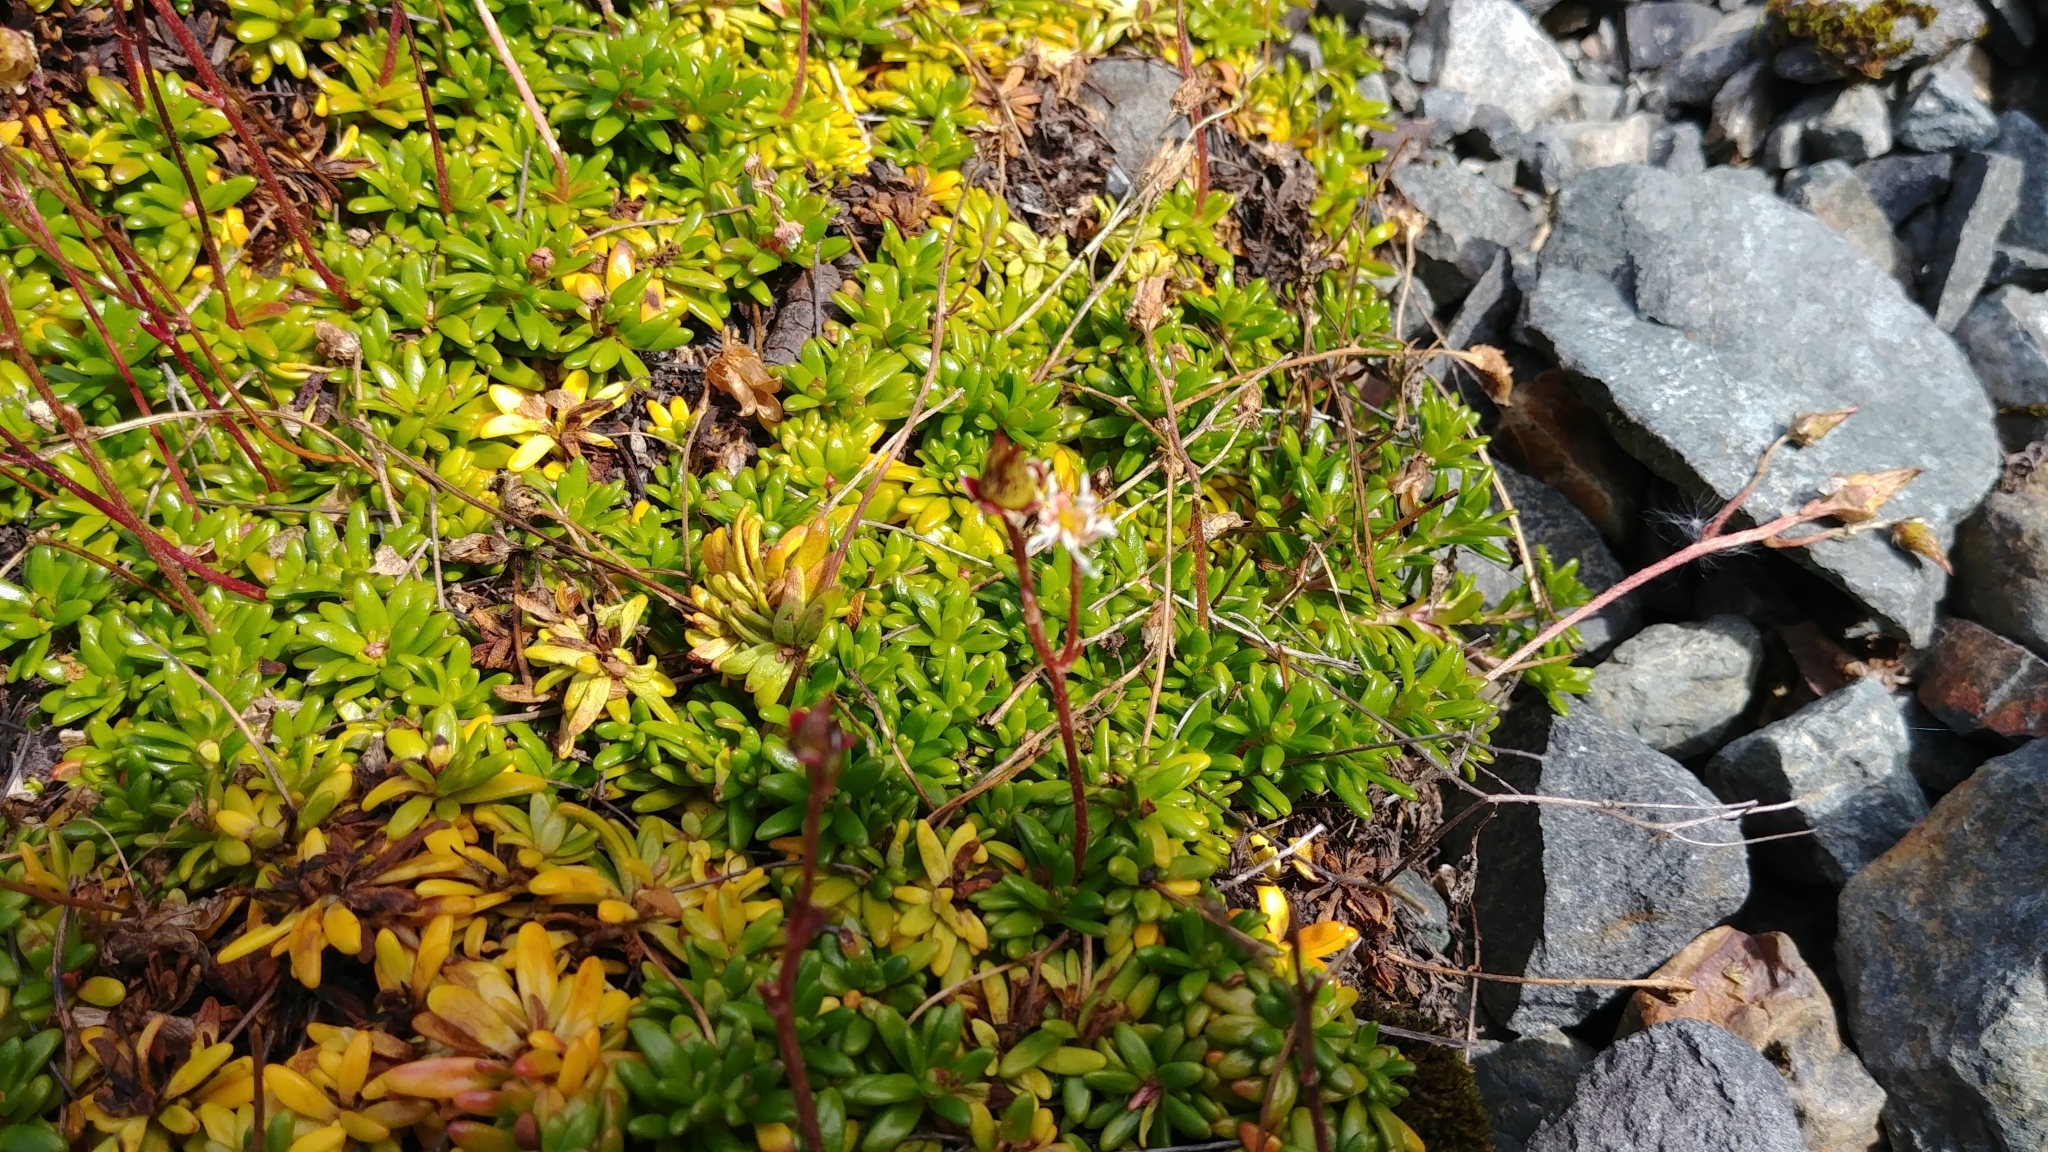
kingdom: Plantae
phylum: Tracheophyta
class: Magnoliopsida
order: Saxifragales
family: Saxifragaceae
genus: Micranthes
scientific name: Micranthes tolmiei
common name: Tolmie's saxifrage
